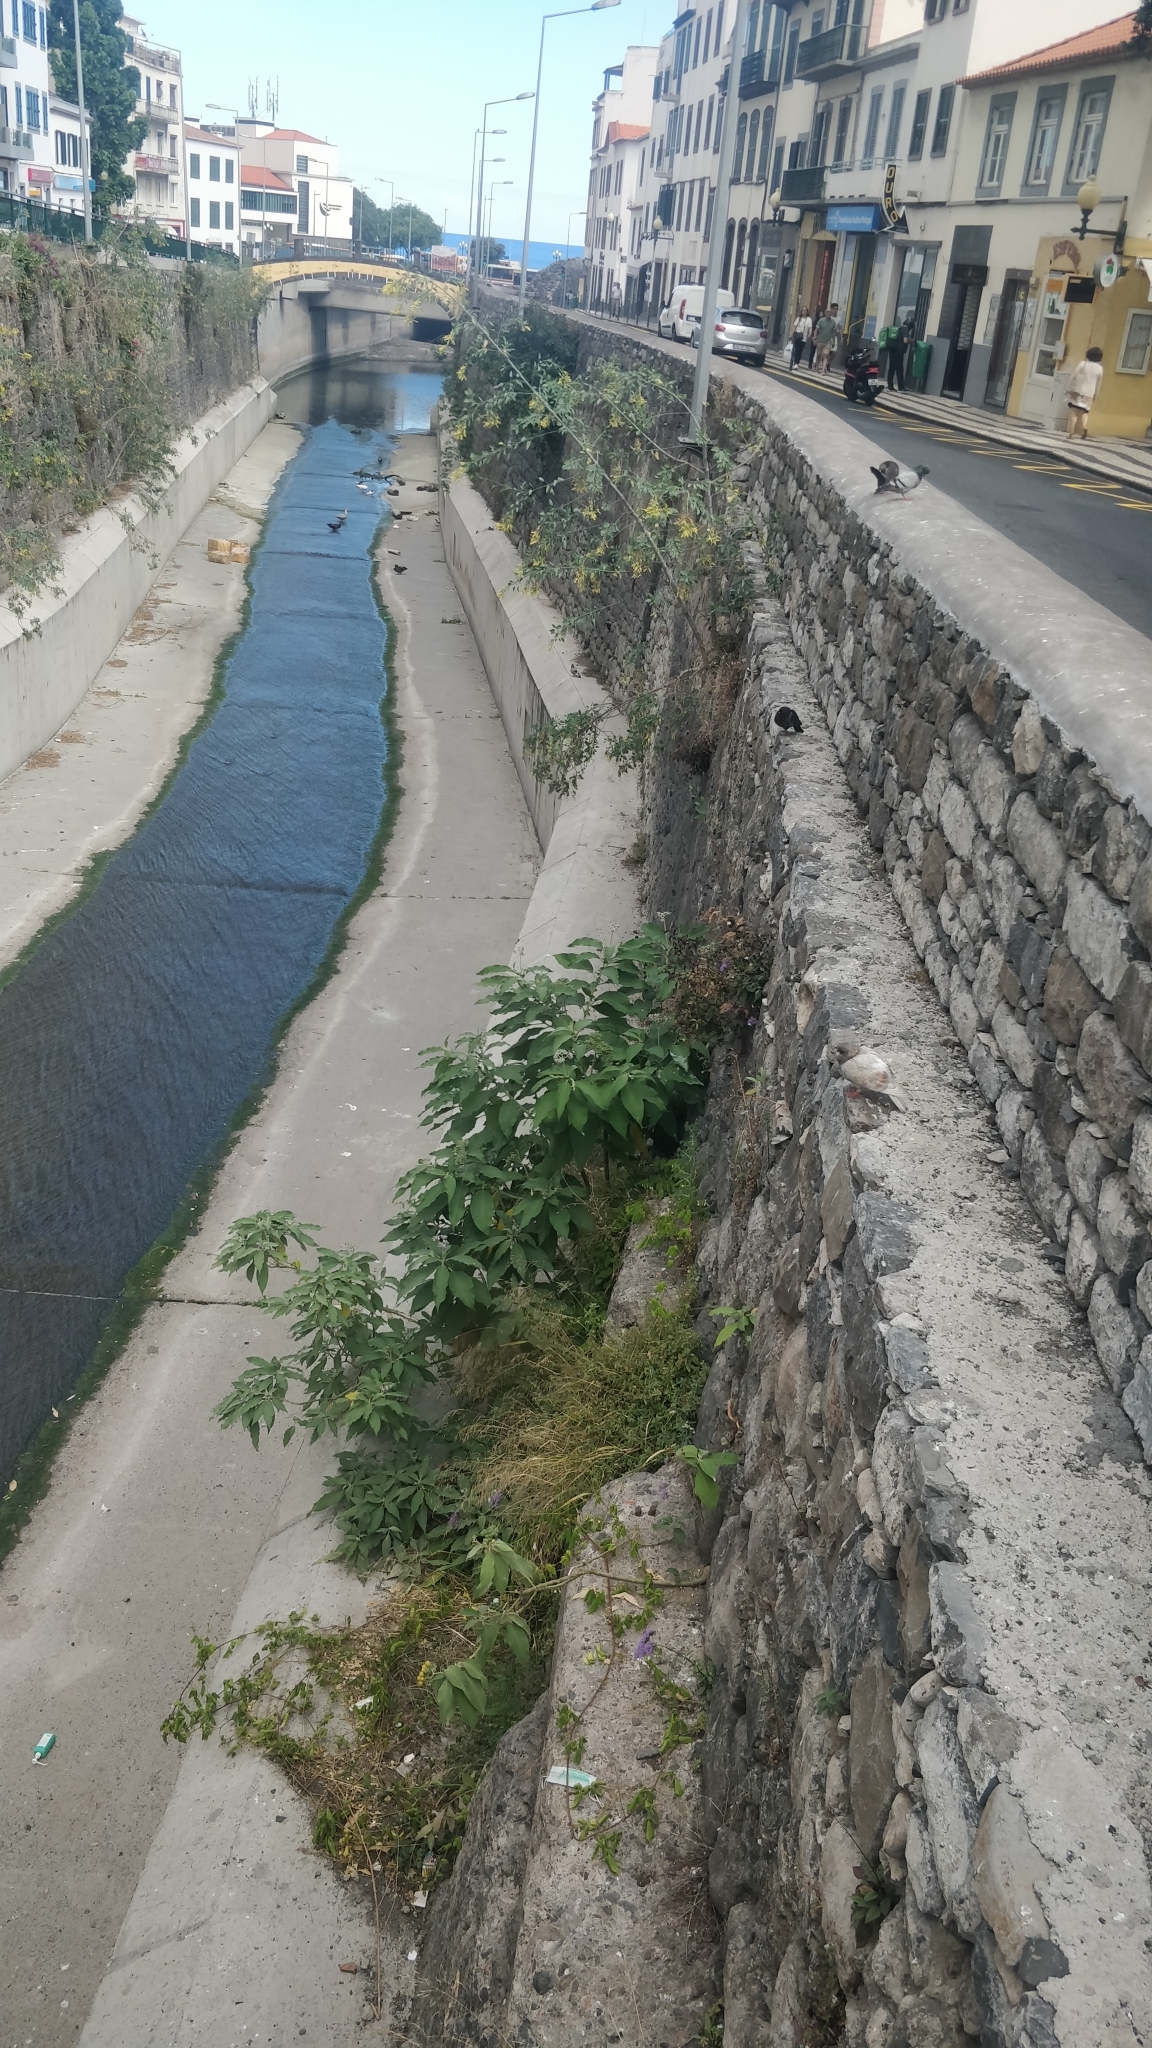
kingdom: Plantae
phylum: Tracheophyta
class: Magnoliopsida
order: Solanales
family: Solanaceae
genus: Solanum
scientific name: Solanum mauritianum
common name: Earleaf nightshade
